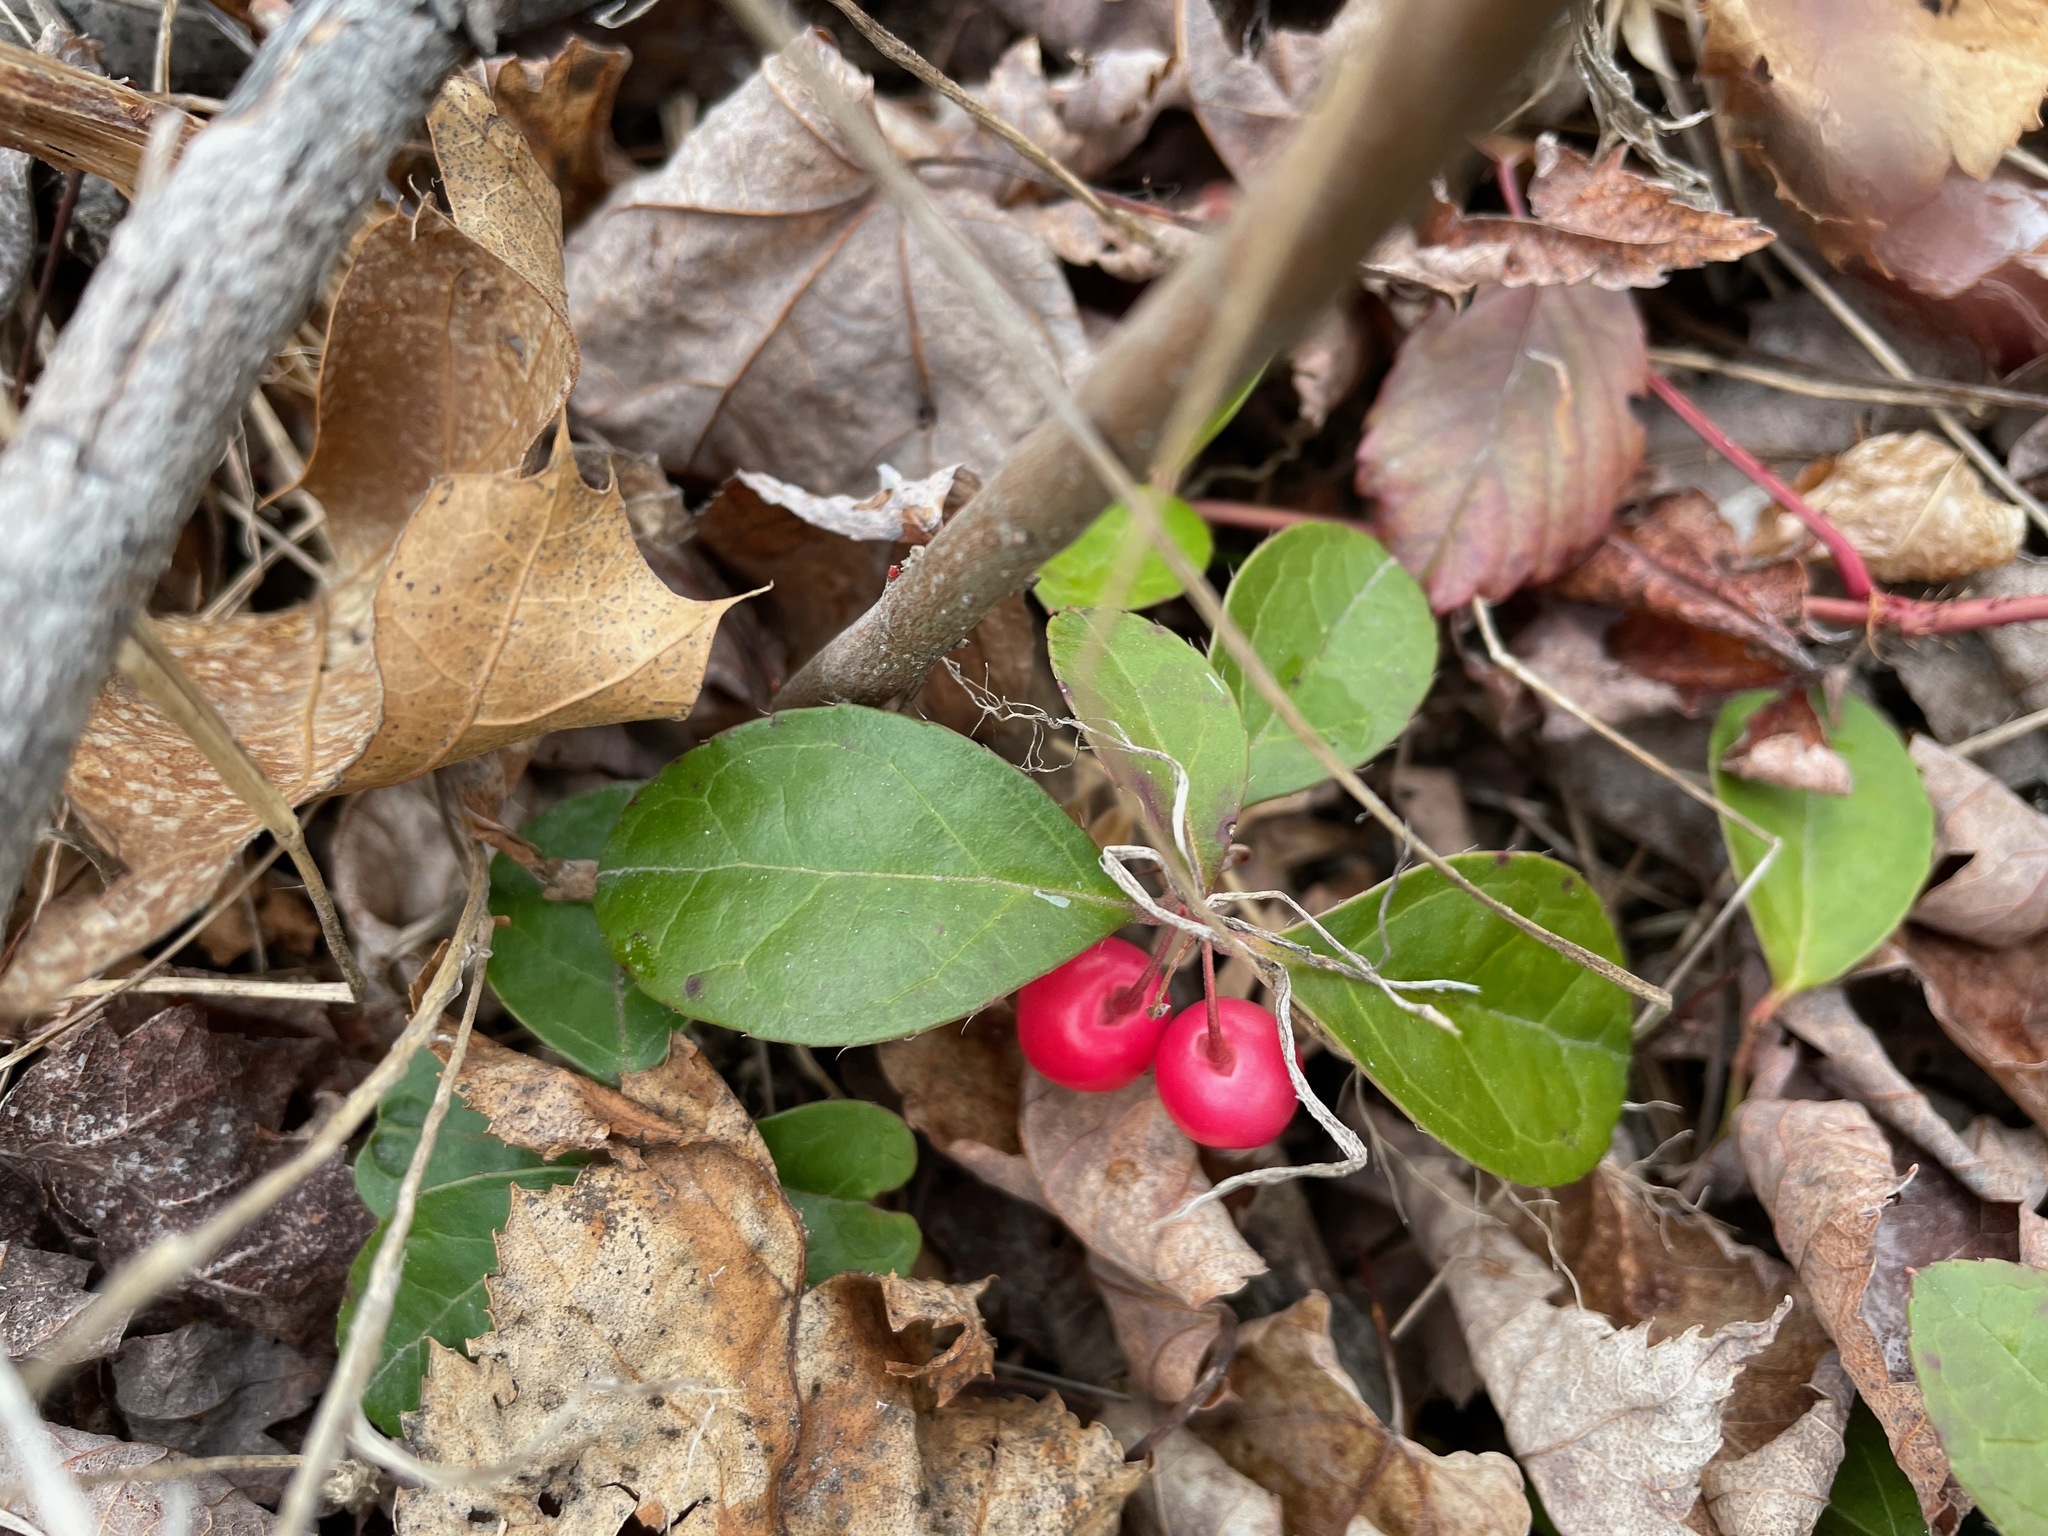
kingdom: Plantae
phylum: Tracheophyta
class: Magnoliopsida
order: Ericales
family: Ericaceae
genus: Gaultheria
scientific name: Gaultheria procumbens
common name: Checkerberry
